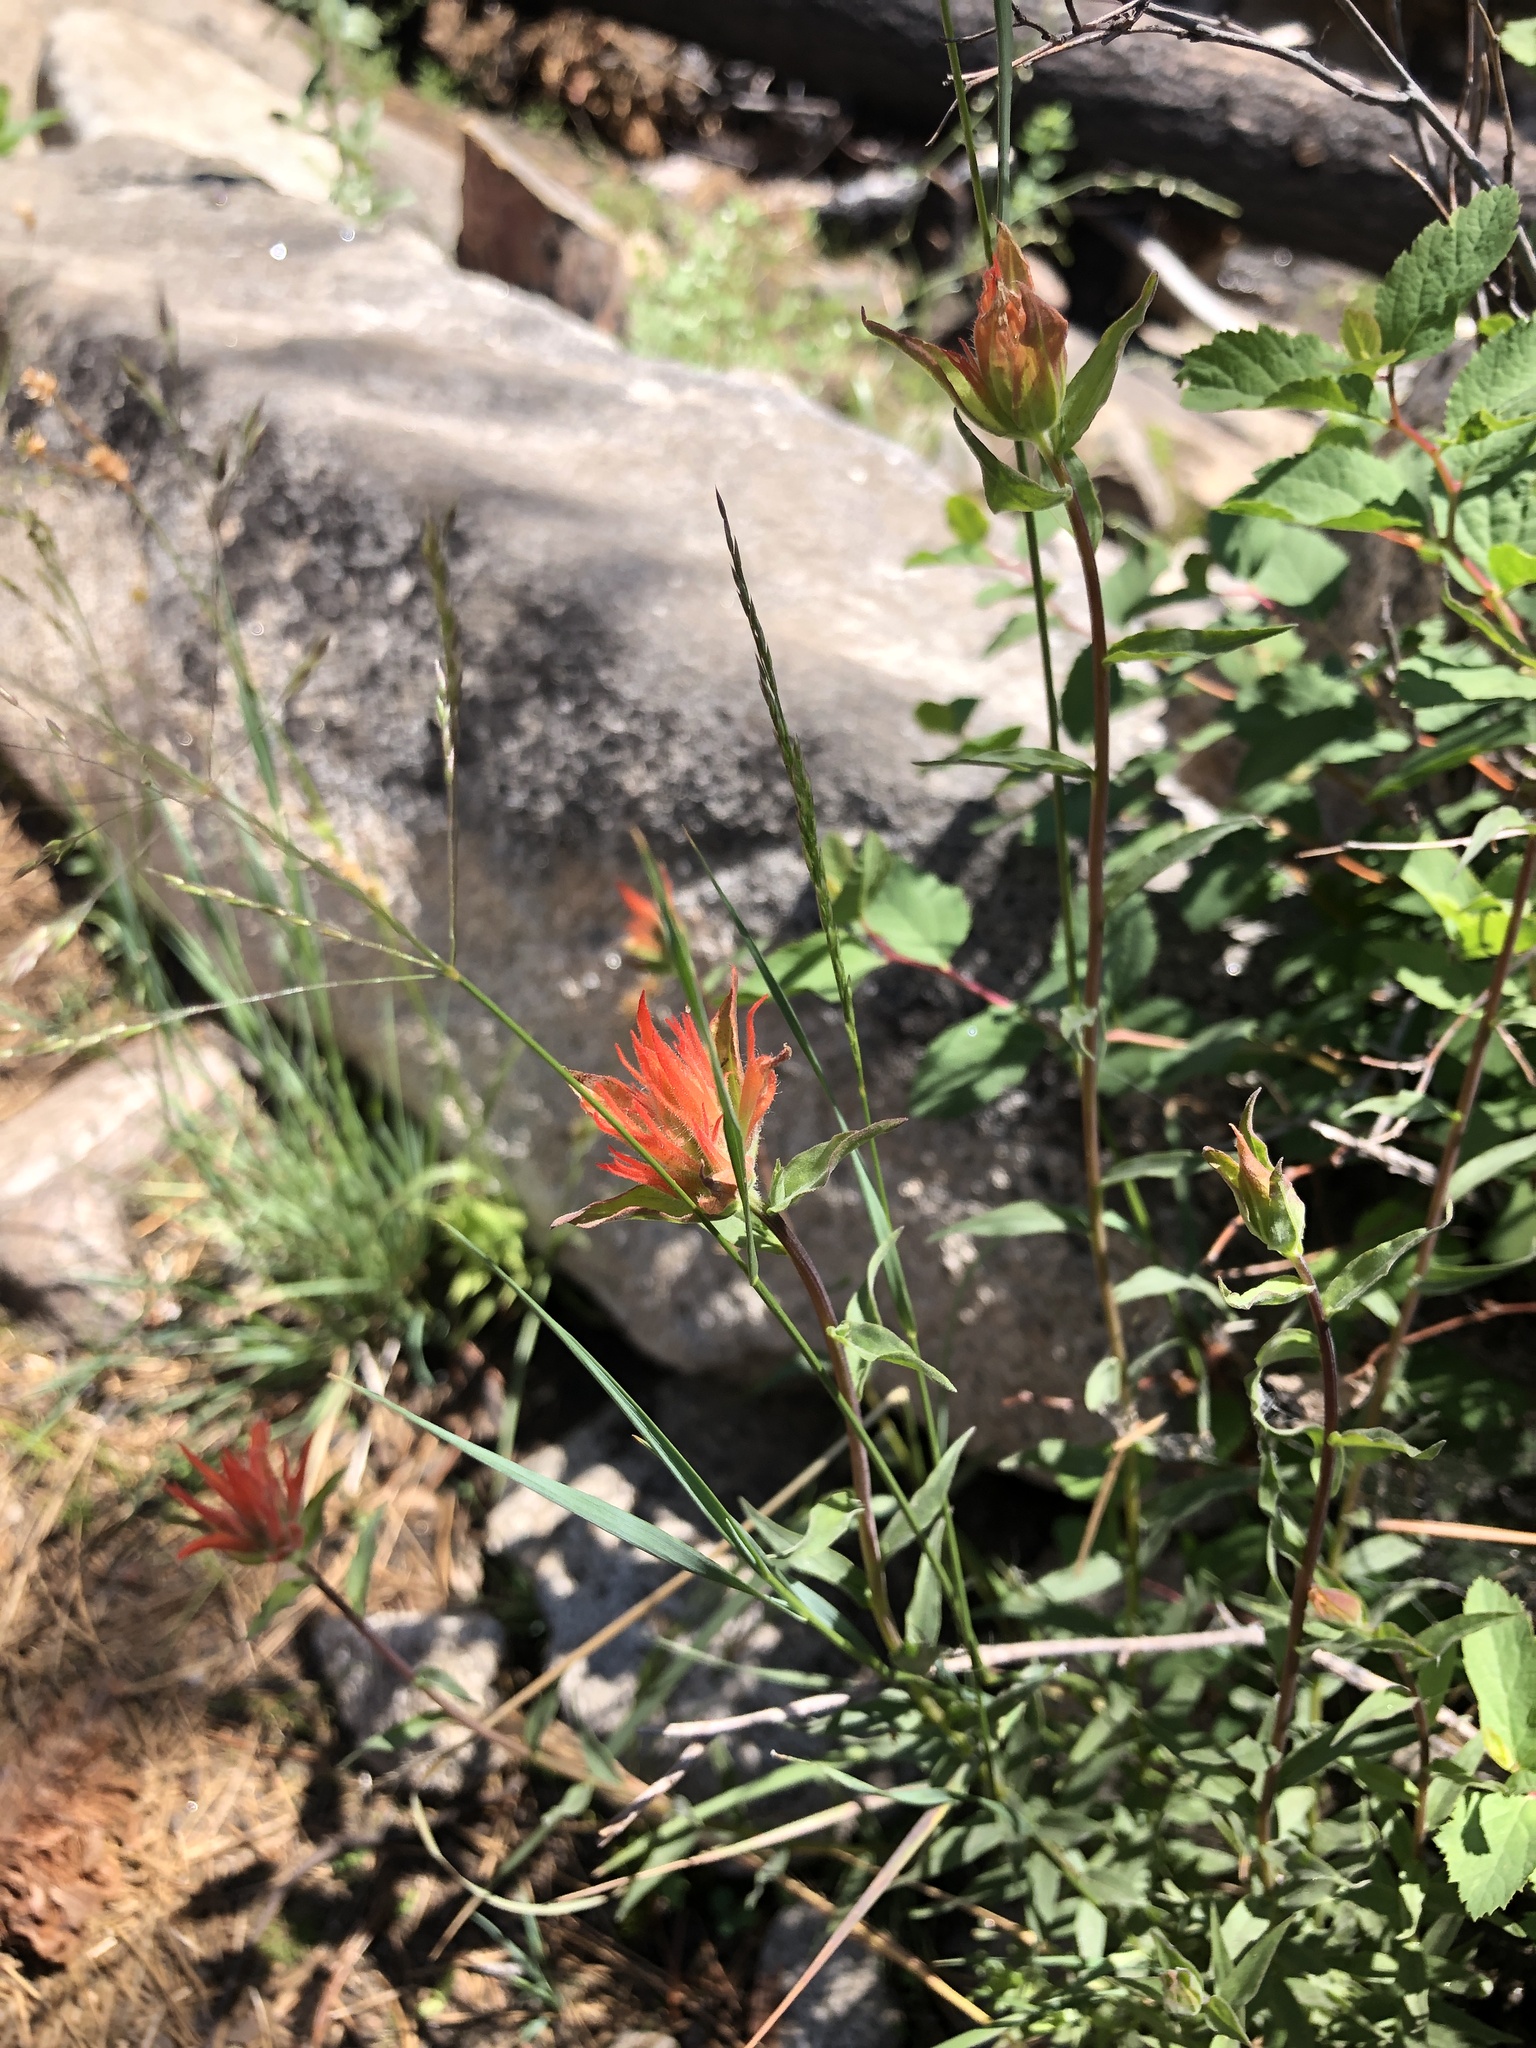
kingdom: Plantae
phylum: Tracheophyta
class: Magnoliopsida
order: Lamiales
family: Orobanchaceae
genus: Castilleja
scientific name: Castilleja miniata
